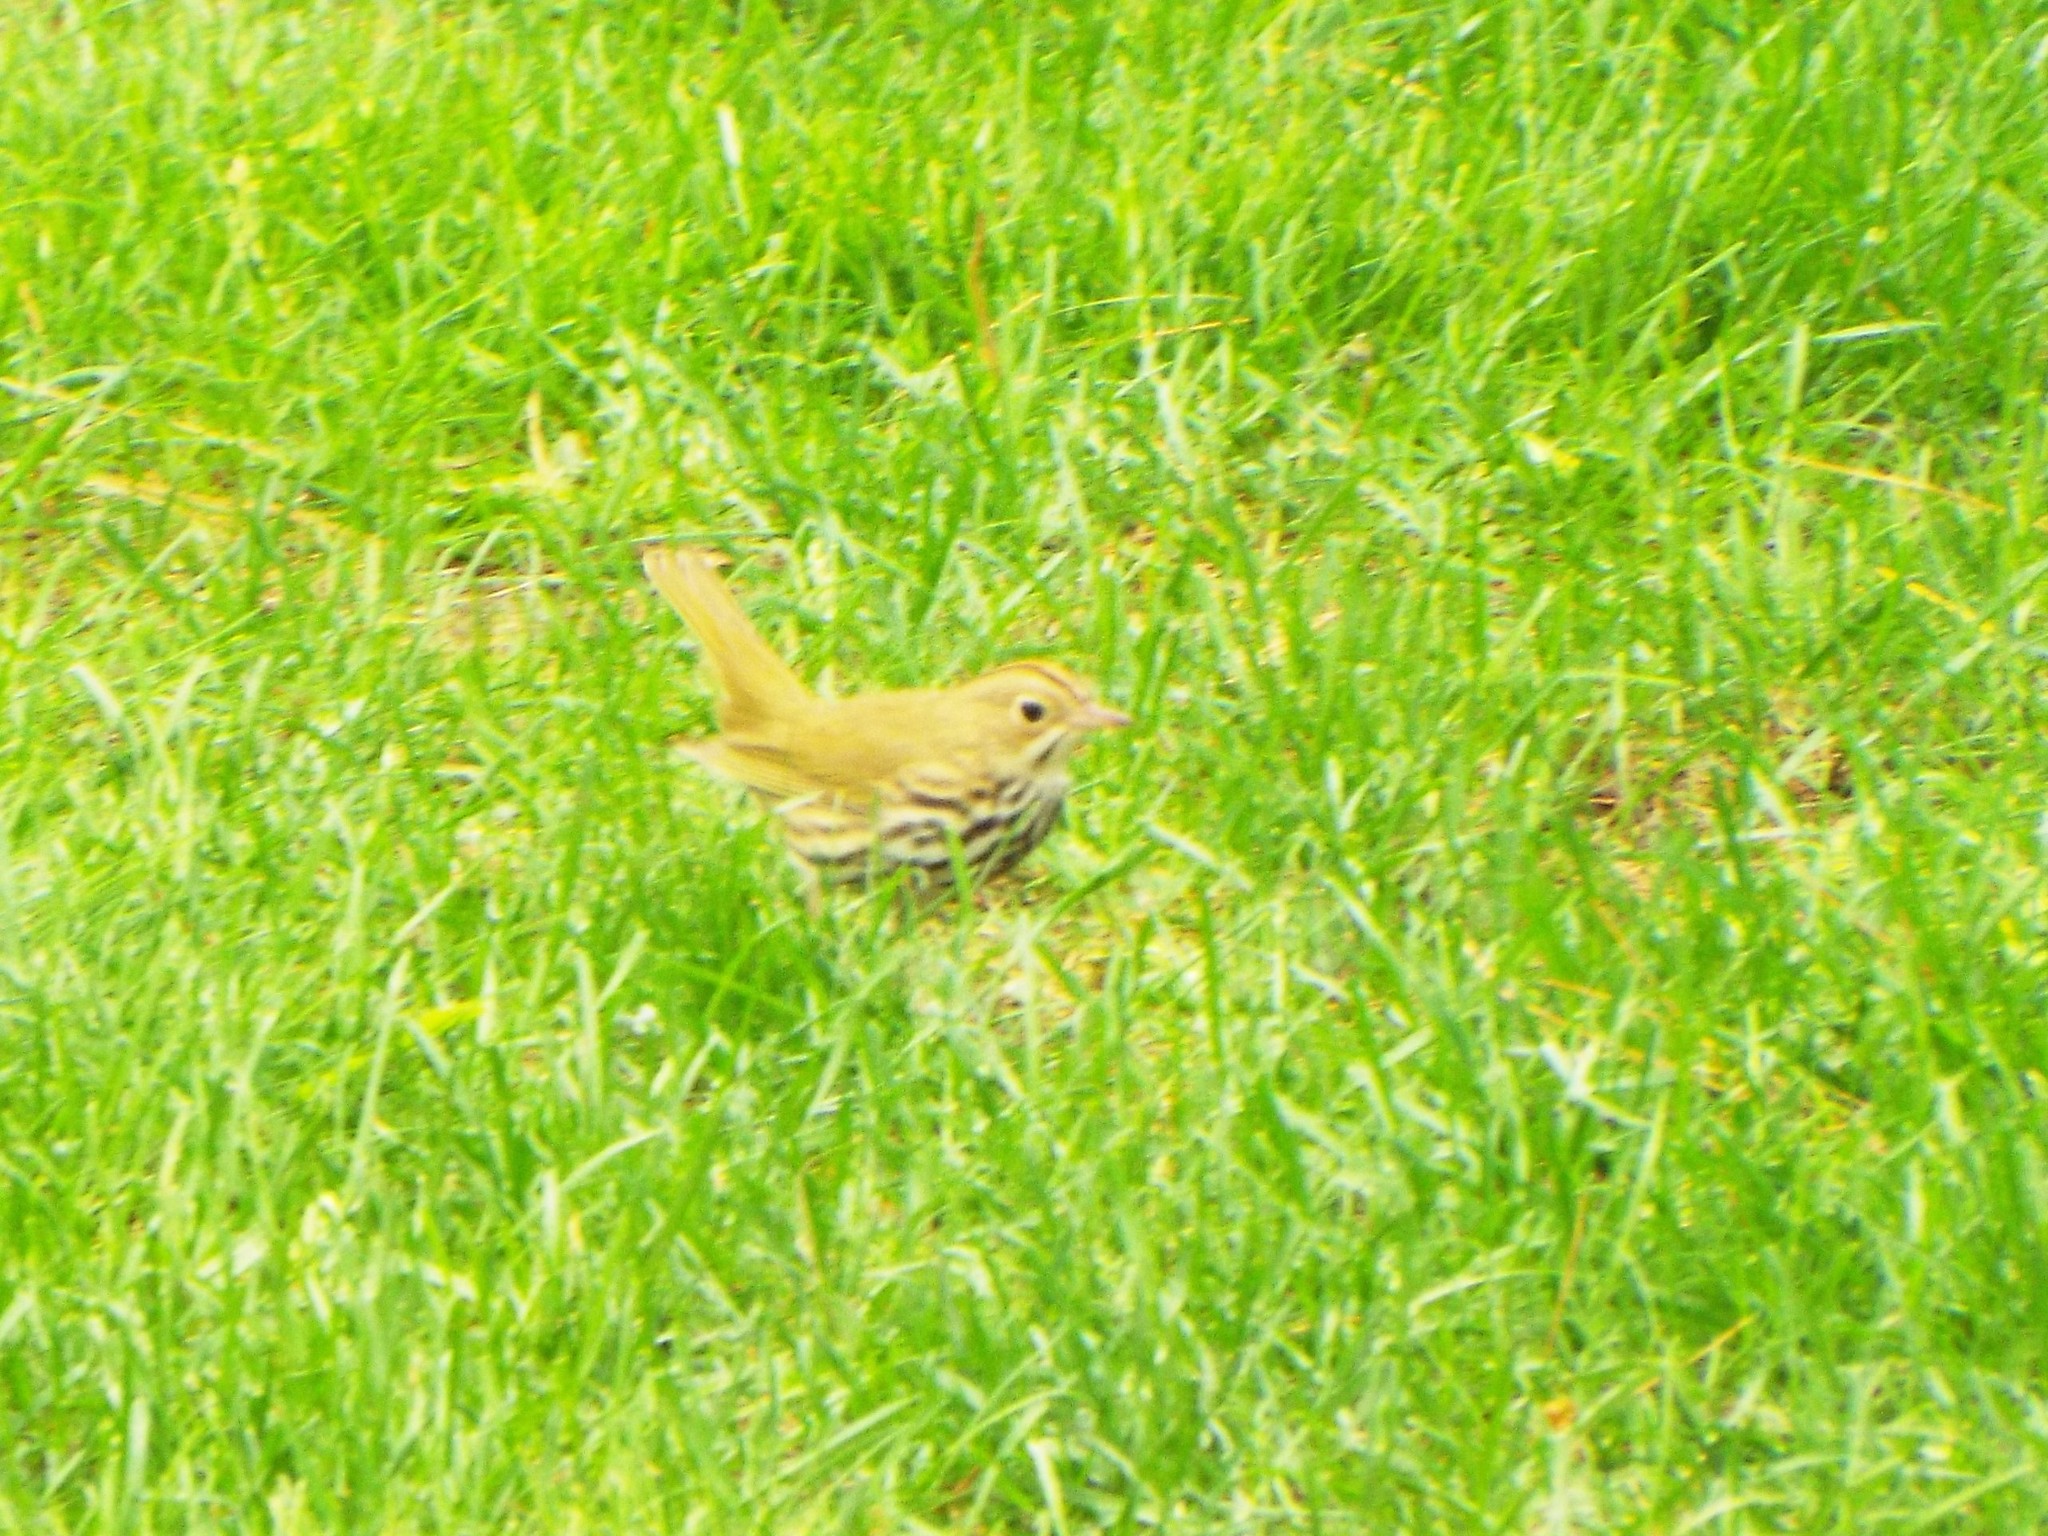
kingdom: Animalia
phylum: Chordata
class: Aves
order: Passeriformes
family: Parulidae
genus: Seiurus
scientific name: Seiurus aurocapilla
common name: Ovenbird
